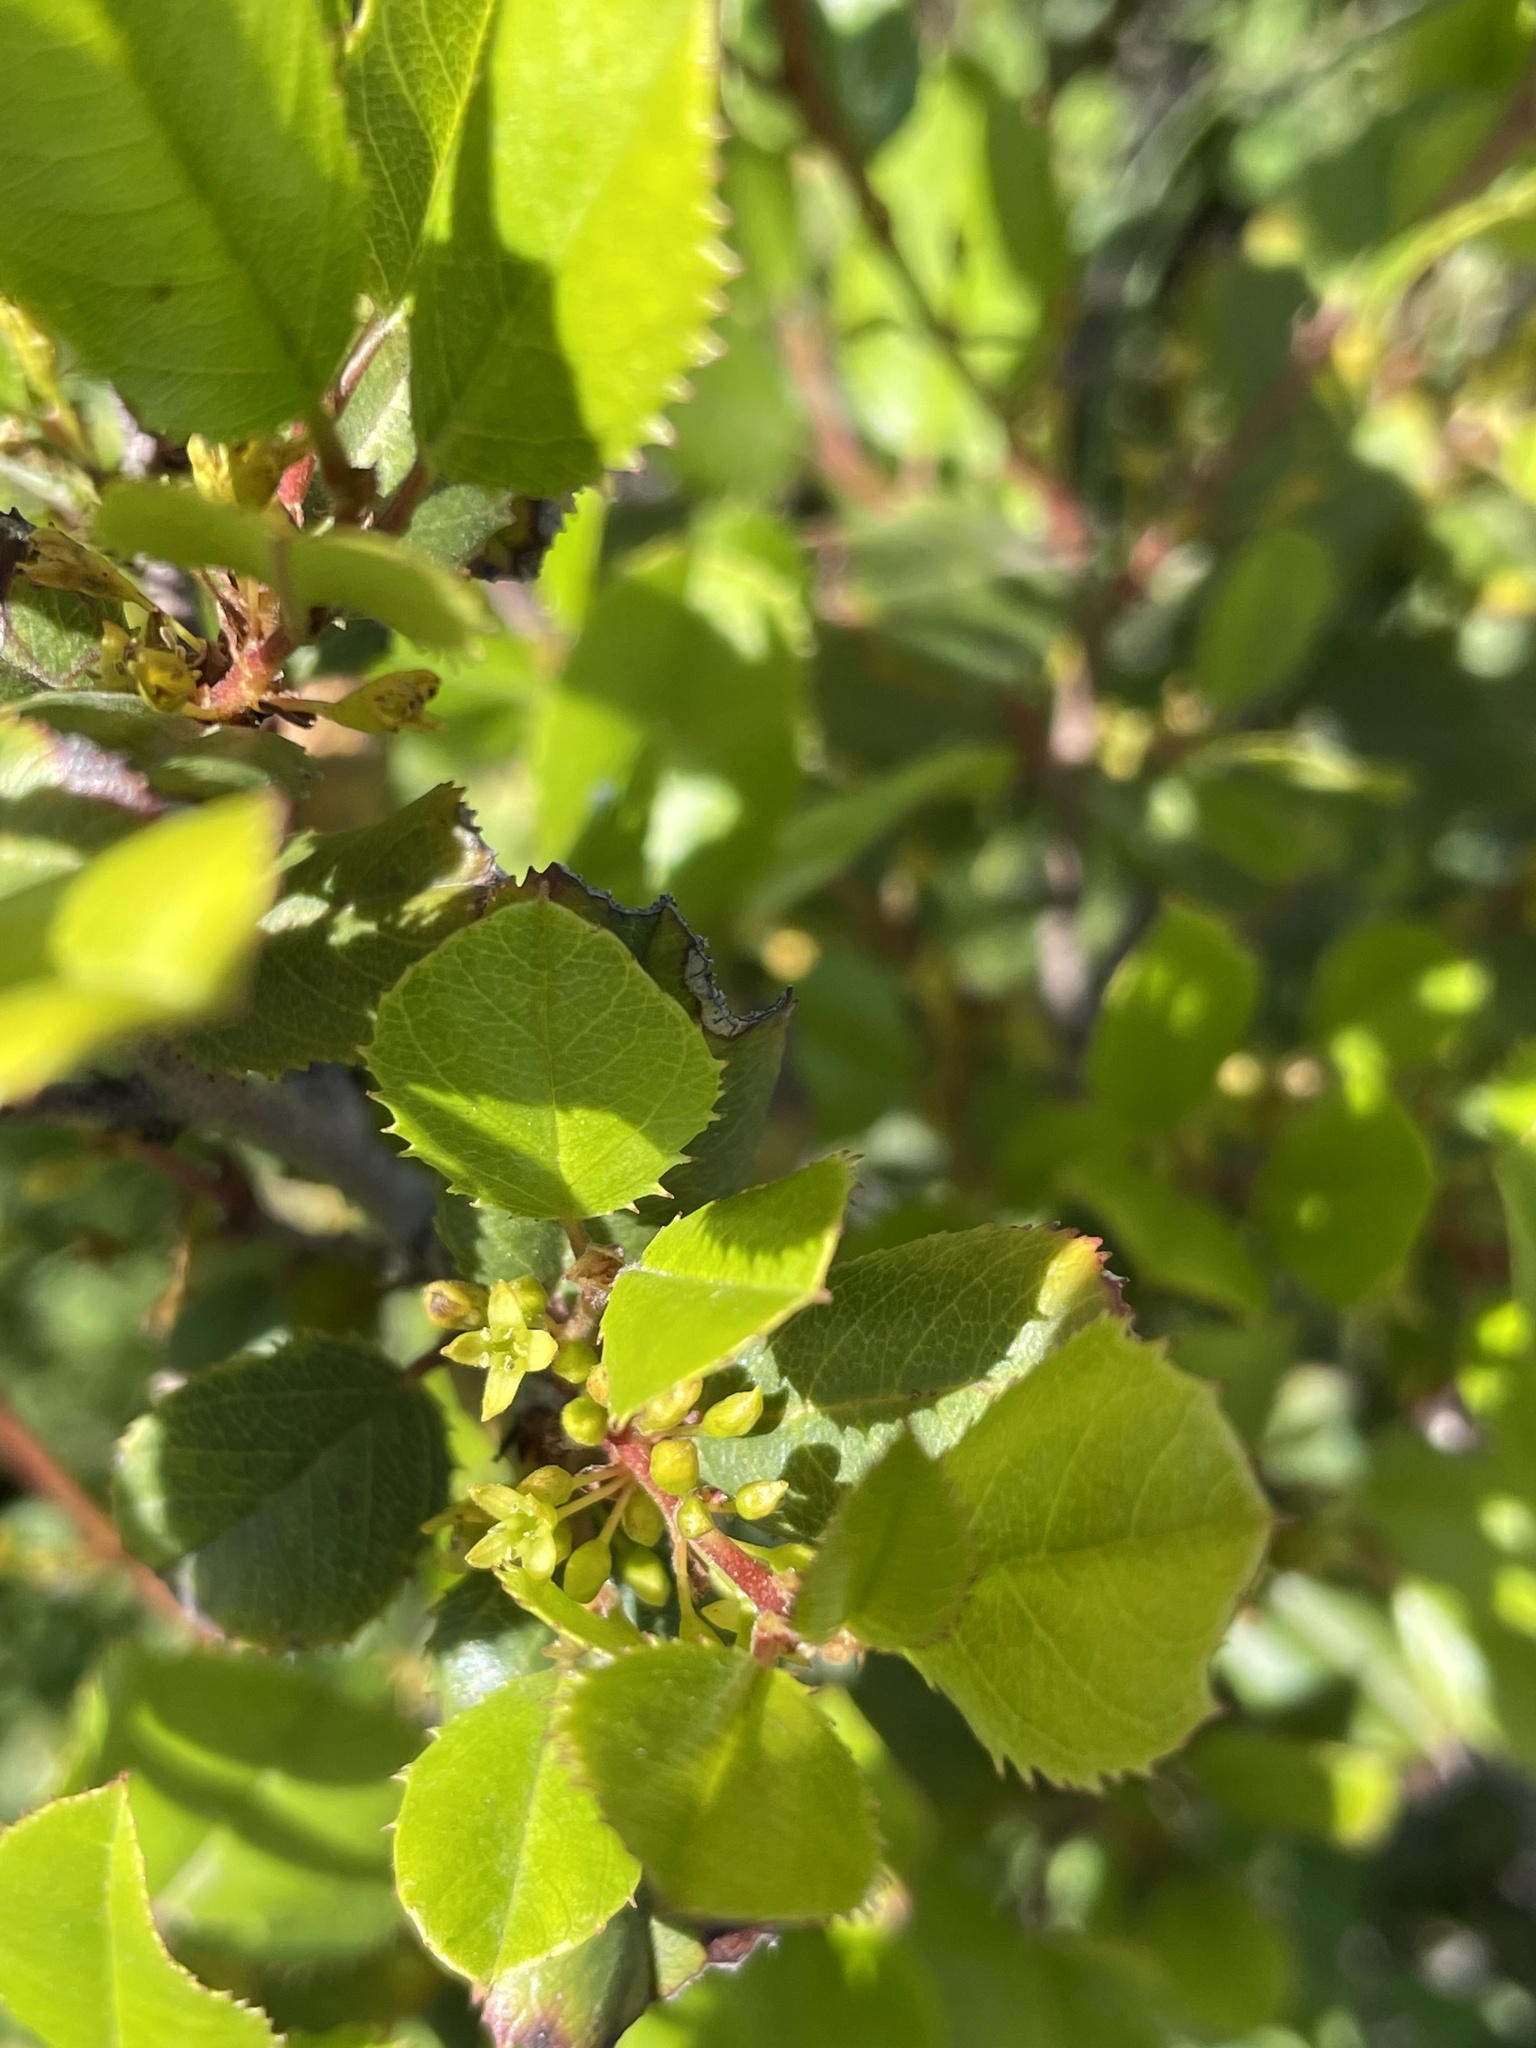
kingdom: Plantae
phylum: Tracheophyta
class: Magnoliopsida
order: Rosales
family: Rhamnaceae
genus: Endotropis
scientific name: Endotropis crocea
